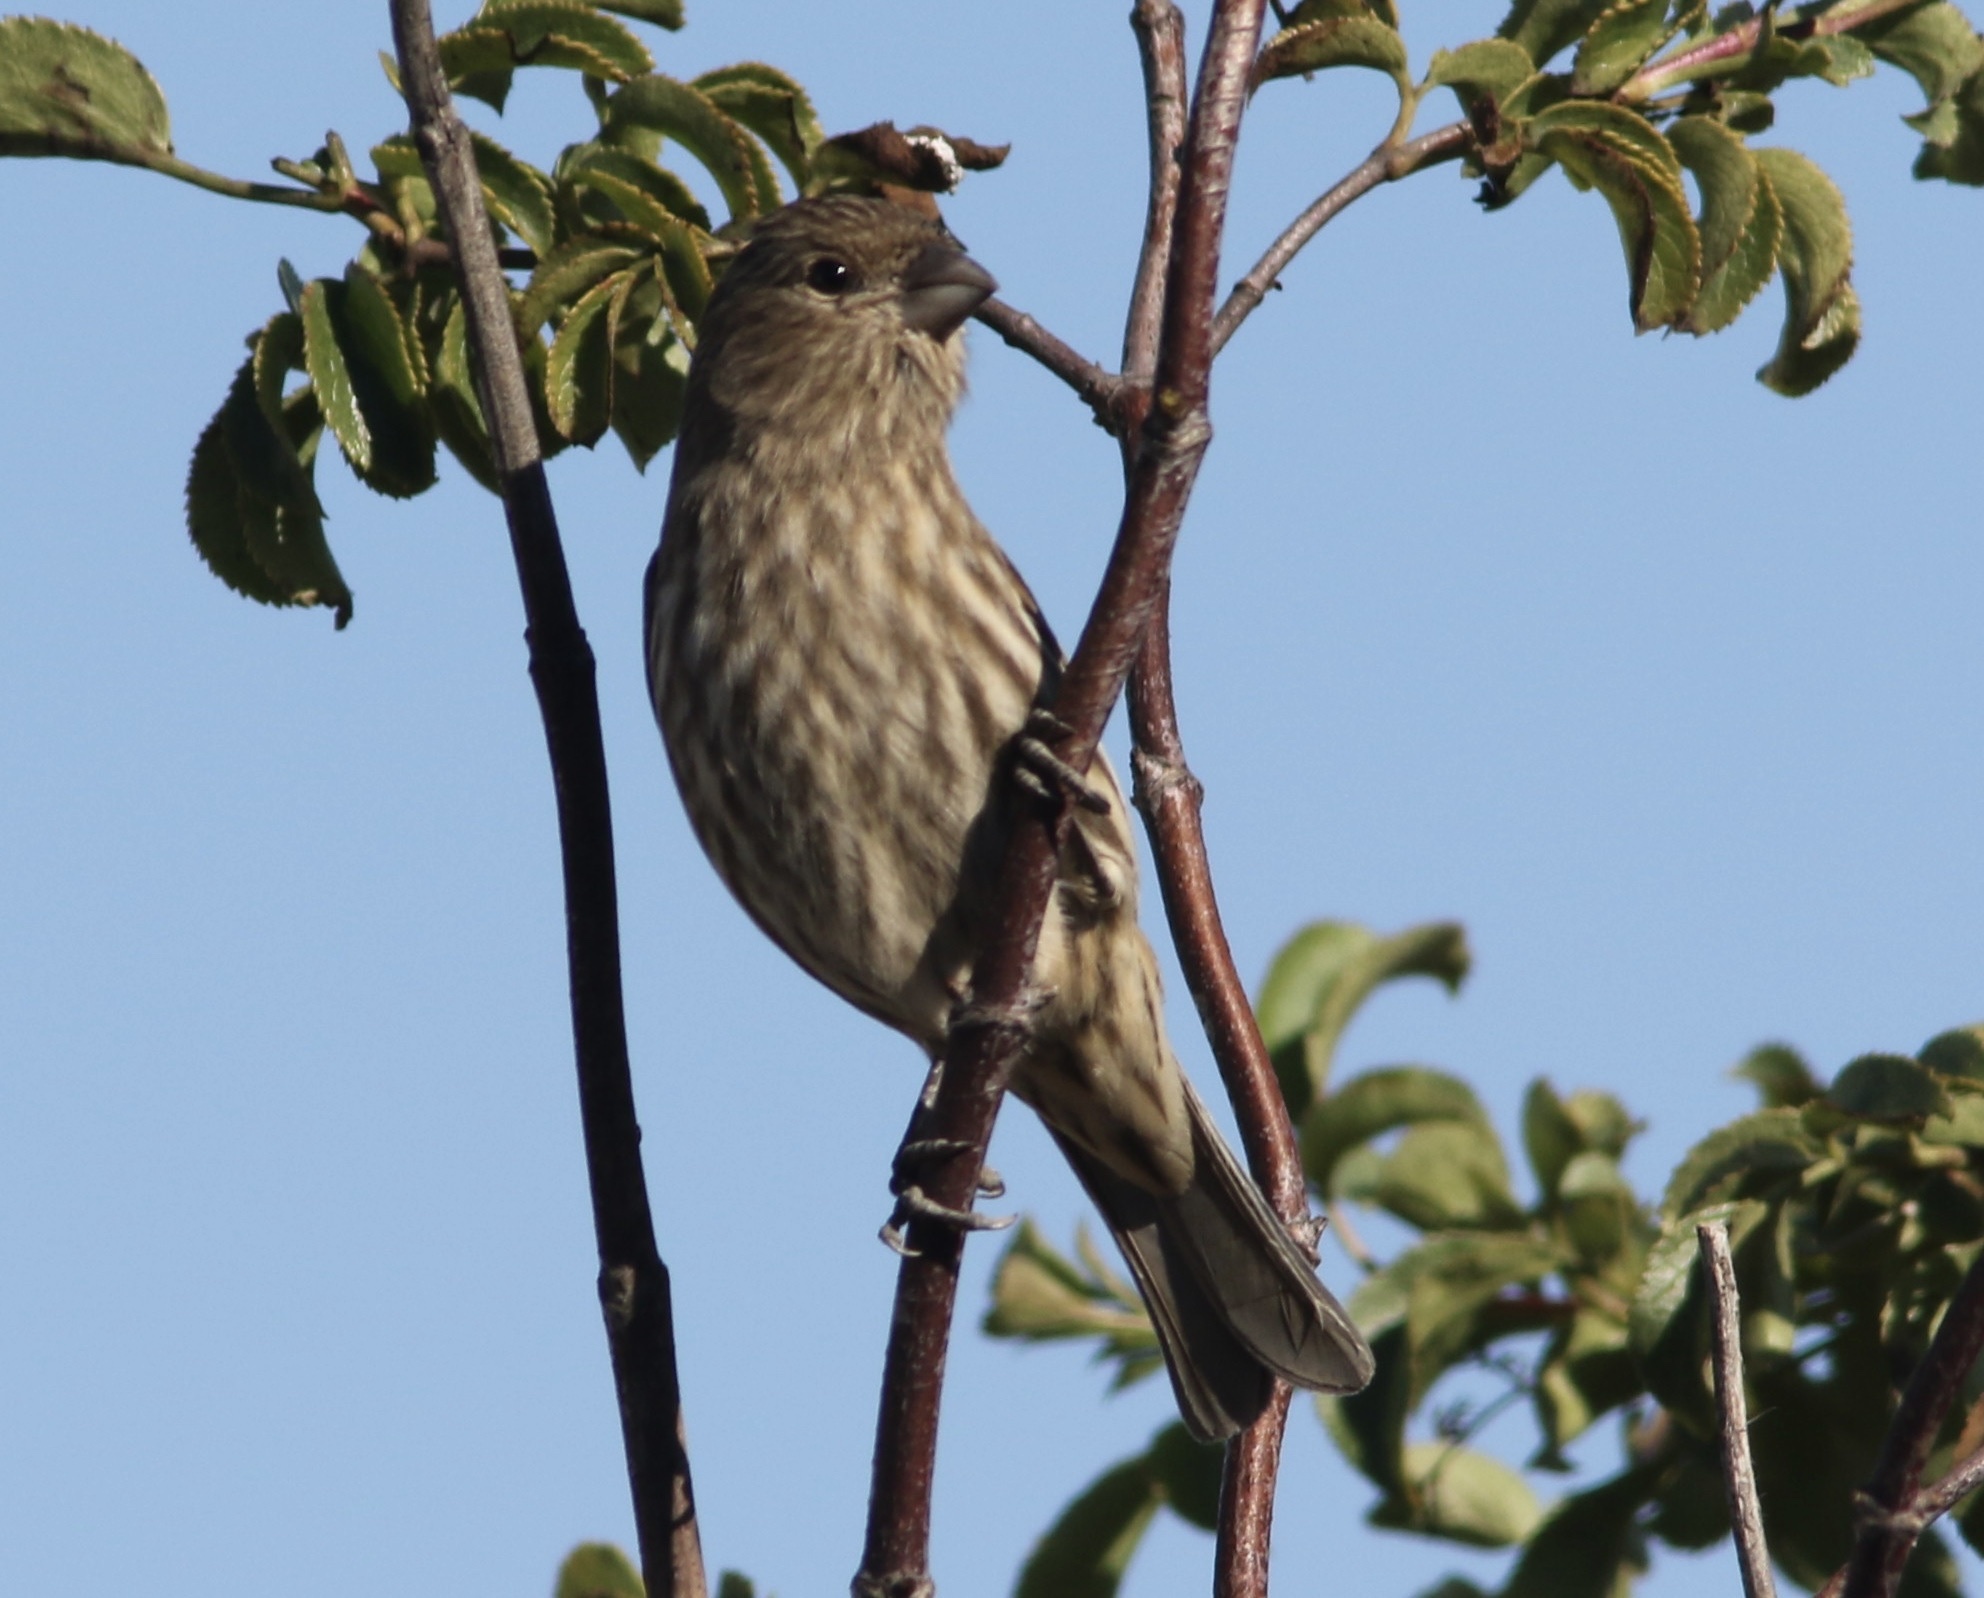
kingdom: Animalia
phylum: Chordata
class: Aves
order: Passeriformes
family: Fringillidae
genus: Haemorhous
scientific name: Haemorhous mexicanus
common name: House finch
